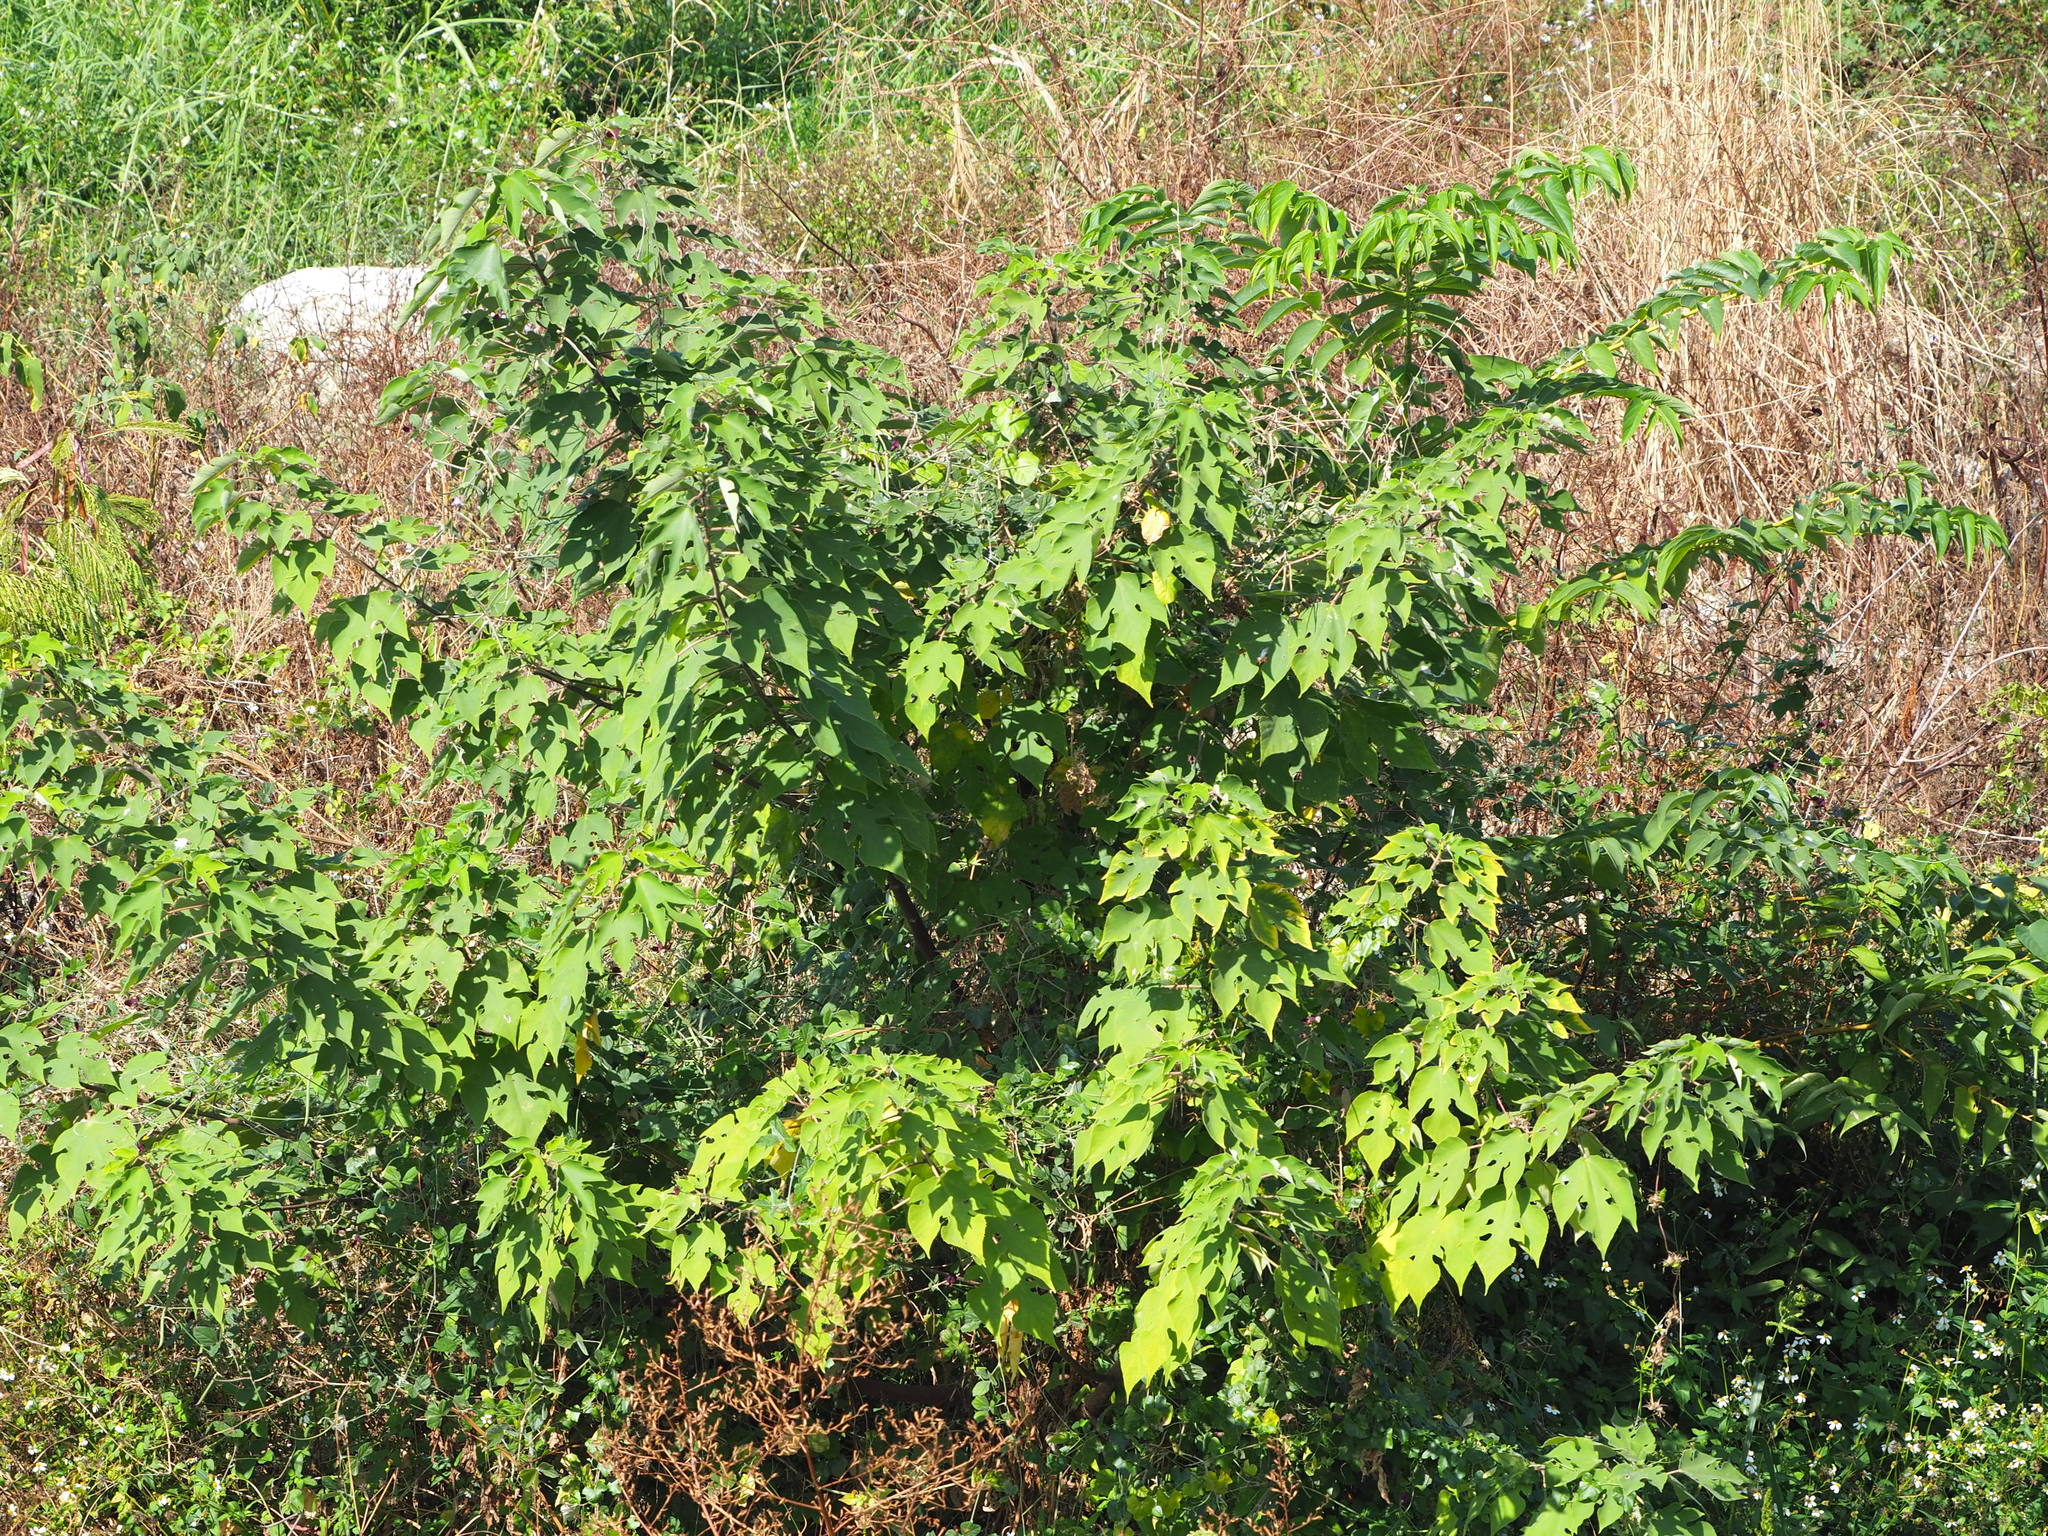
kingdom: Plantae
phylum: Tracheophyta
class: Magnoliopsida
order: Rosales
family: Moraceae
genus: Broussonetia
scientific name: Broussonetia papyrifera
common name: Paper mulberry
